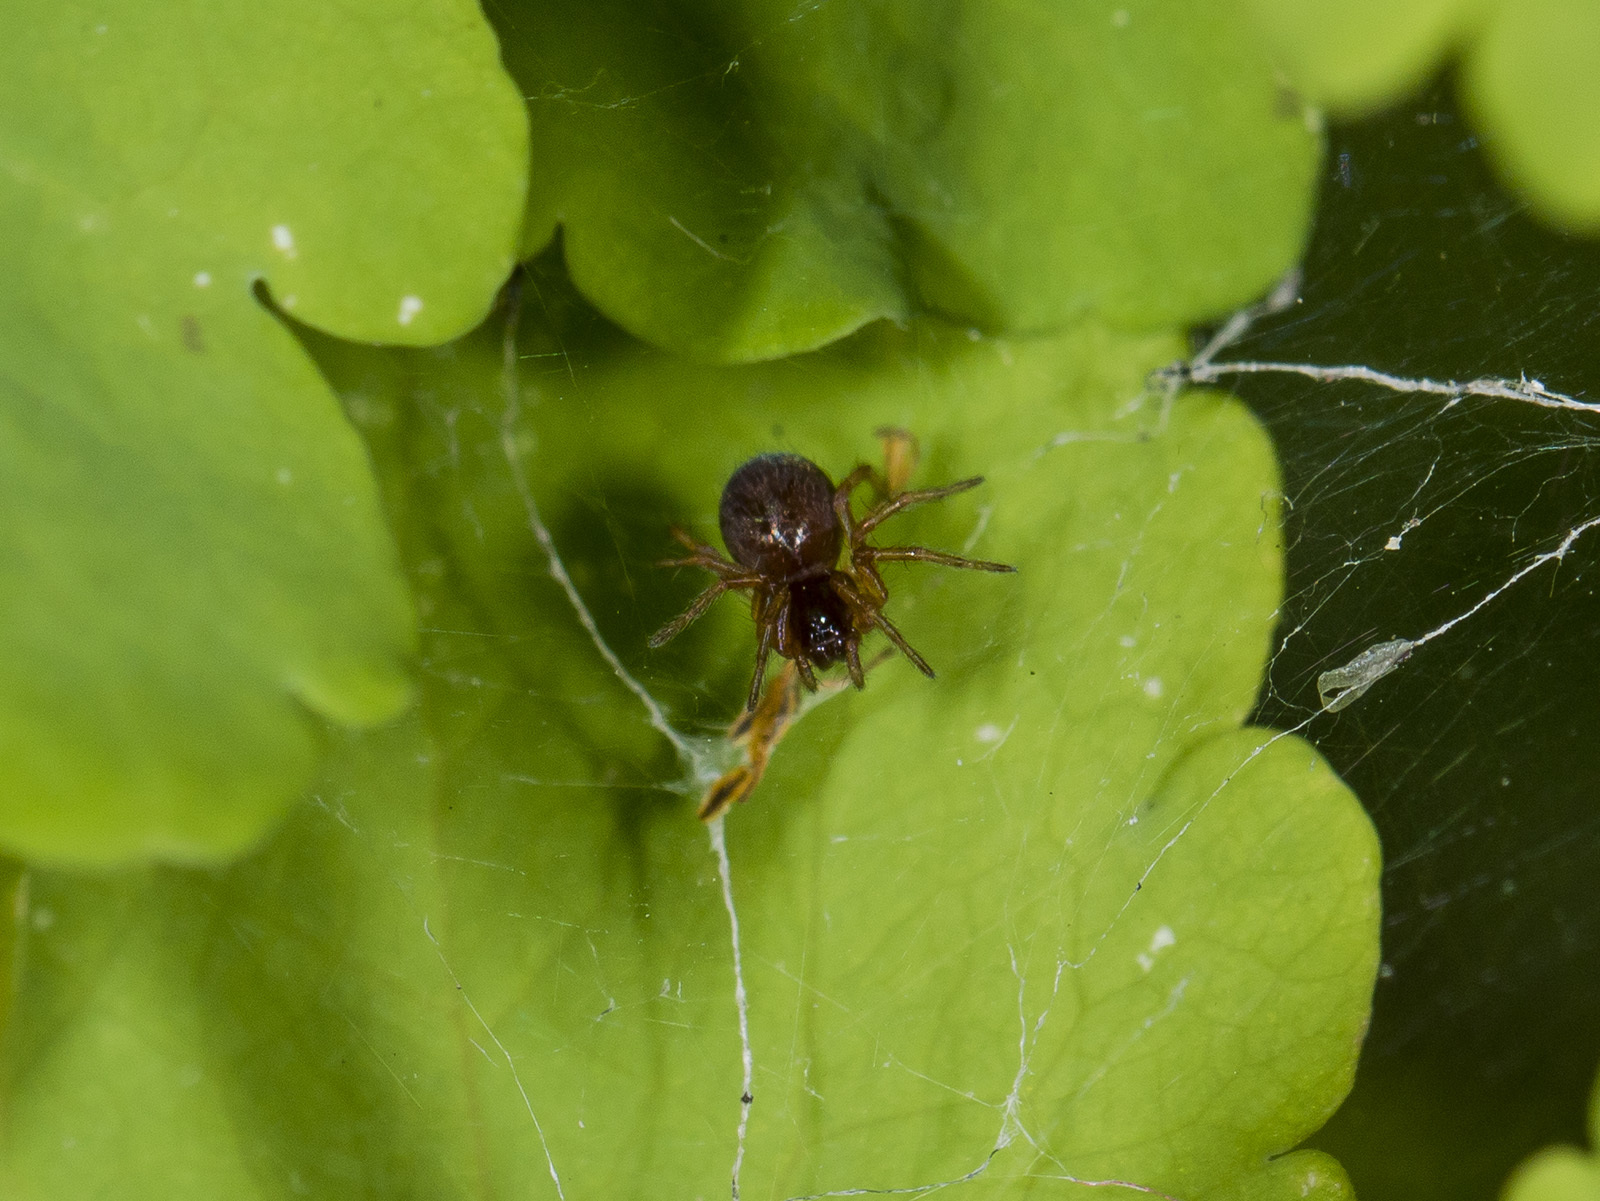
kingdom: Animalia
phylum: Arthropoda
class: Arachnida
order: Araneae
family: Agelenidae
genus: Allagelena
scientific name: Allagelena gracilens
